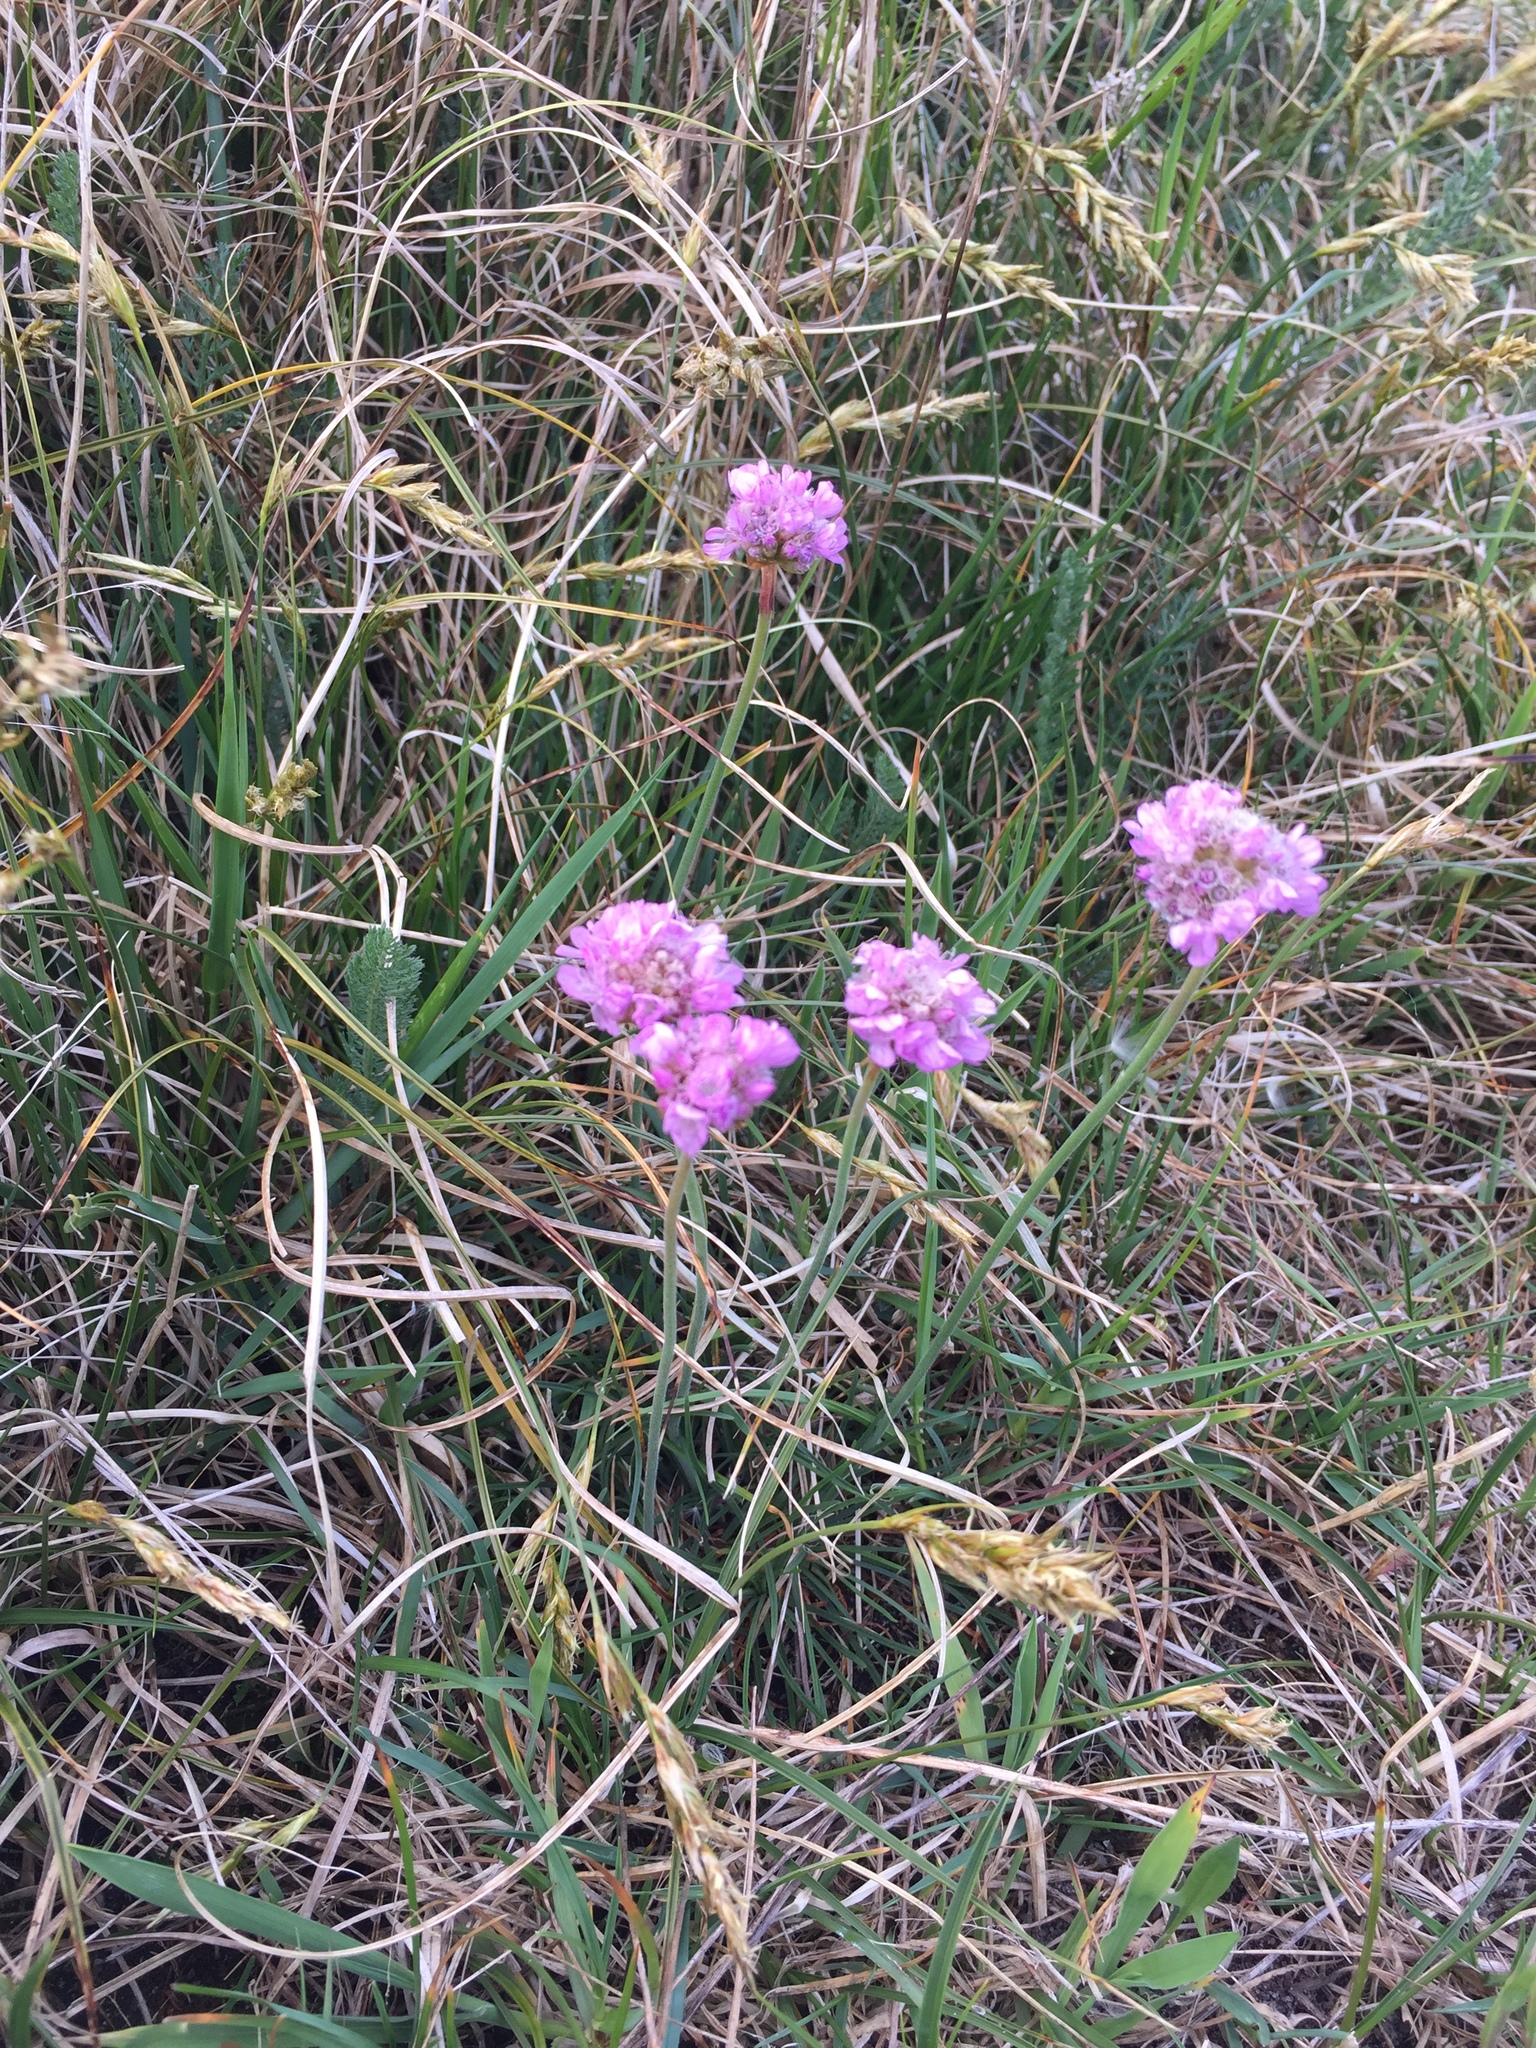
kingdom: Plantae
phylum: Tracheophyta
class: Magnoliopsida
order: Caryophyllales
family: Plumbaginaceae
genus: Armeria
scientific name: Armeria maritima
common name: Thrift
